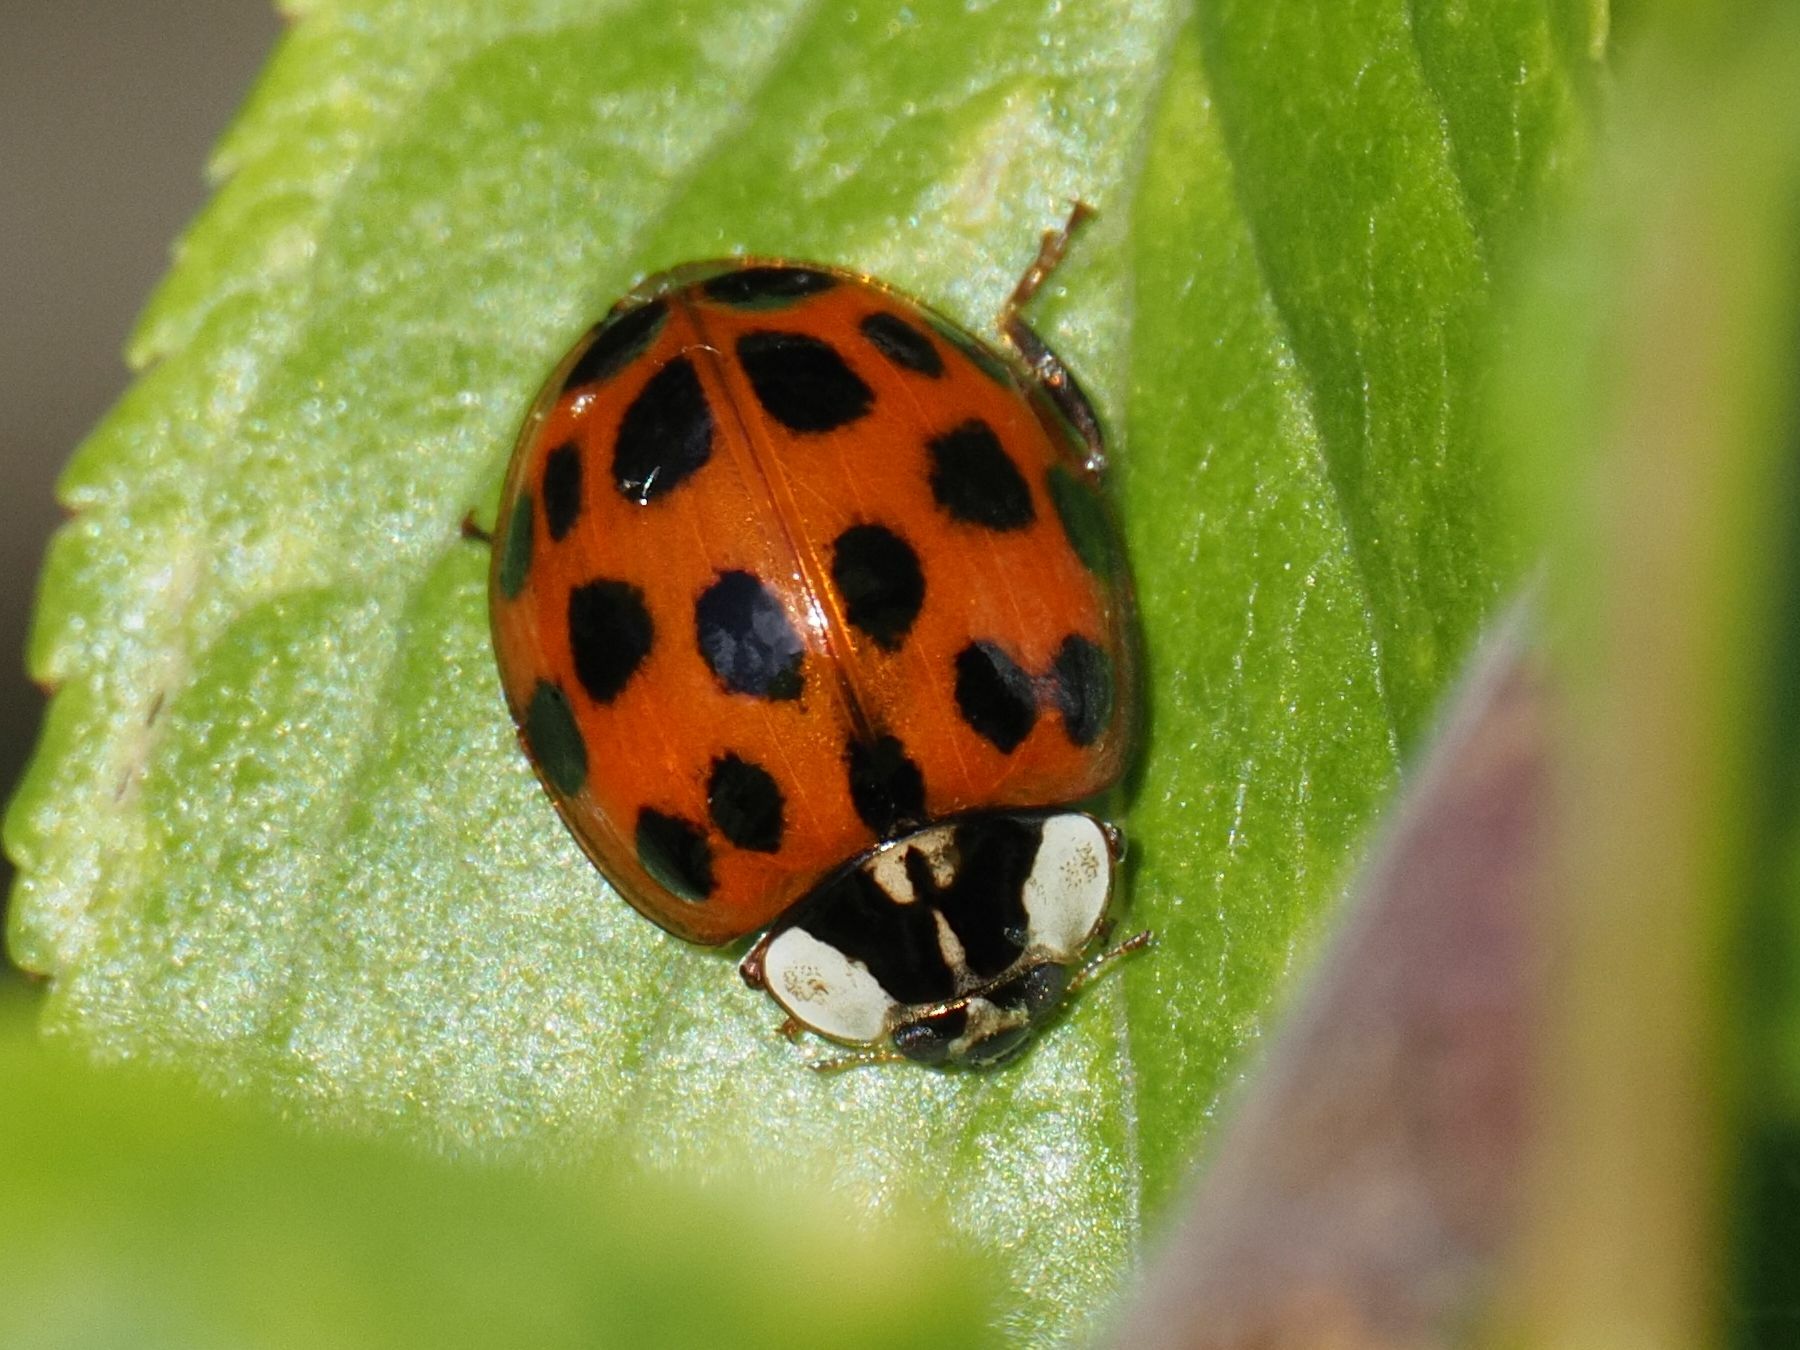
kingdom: Animalia
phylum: Arthropoda
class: Insecta
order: Coleoptera
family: Coccinellidae
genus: Harmonia
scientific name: Harmonia axyridis
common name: Harlequin ladybird
